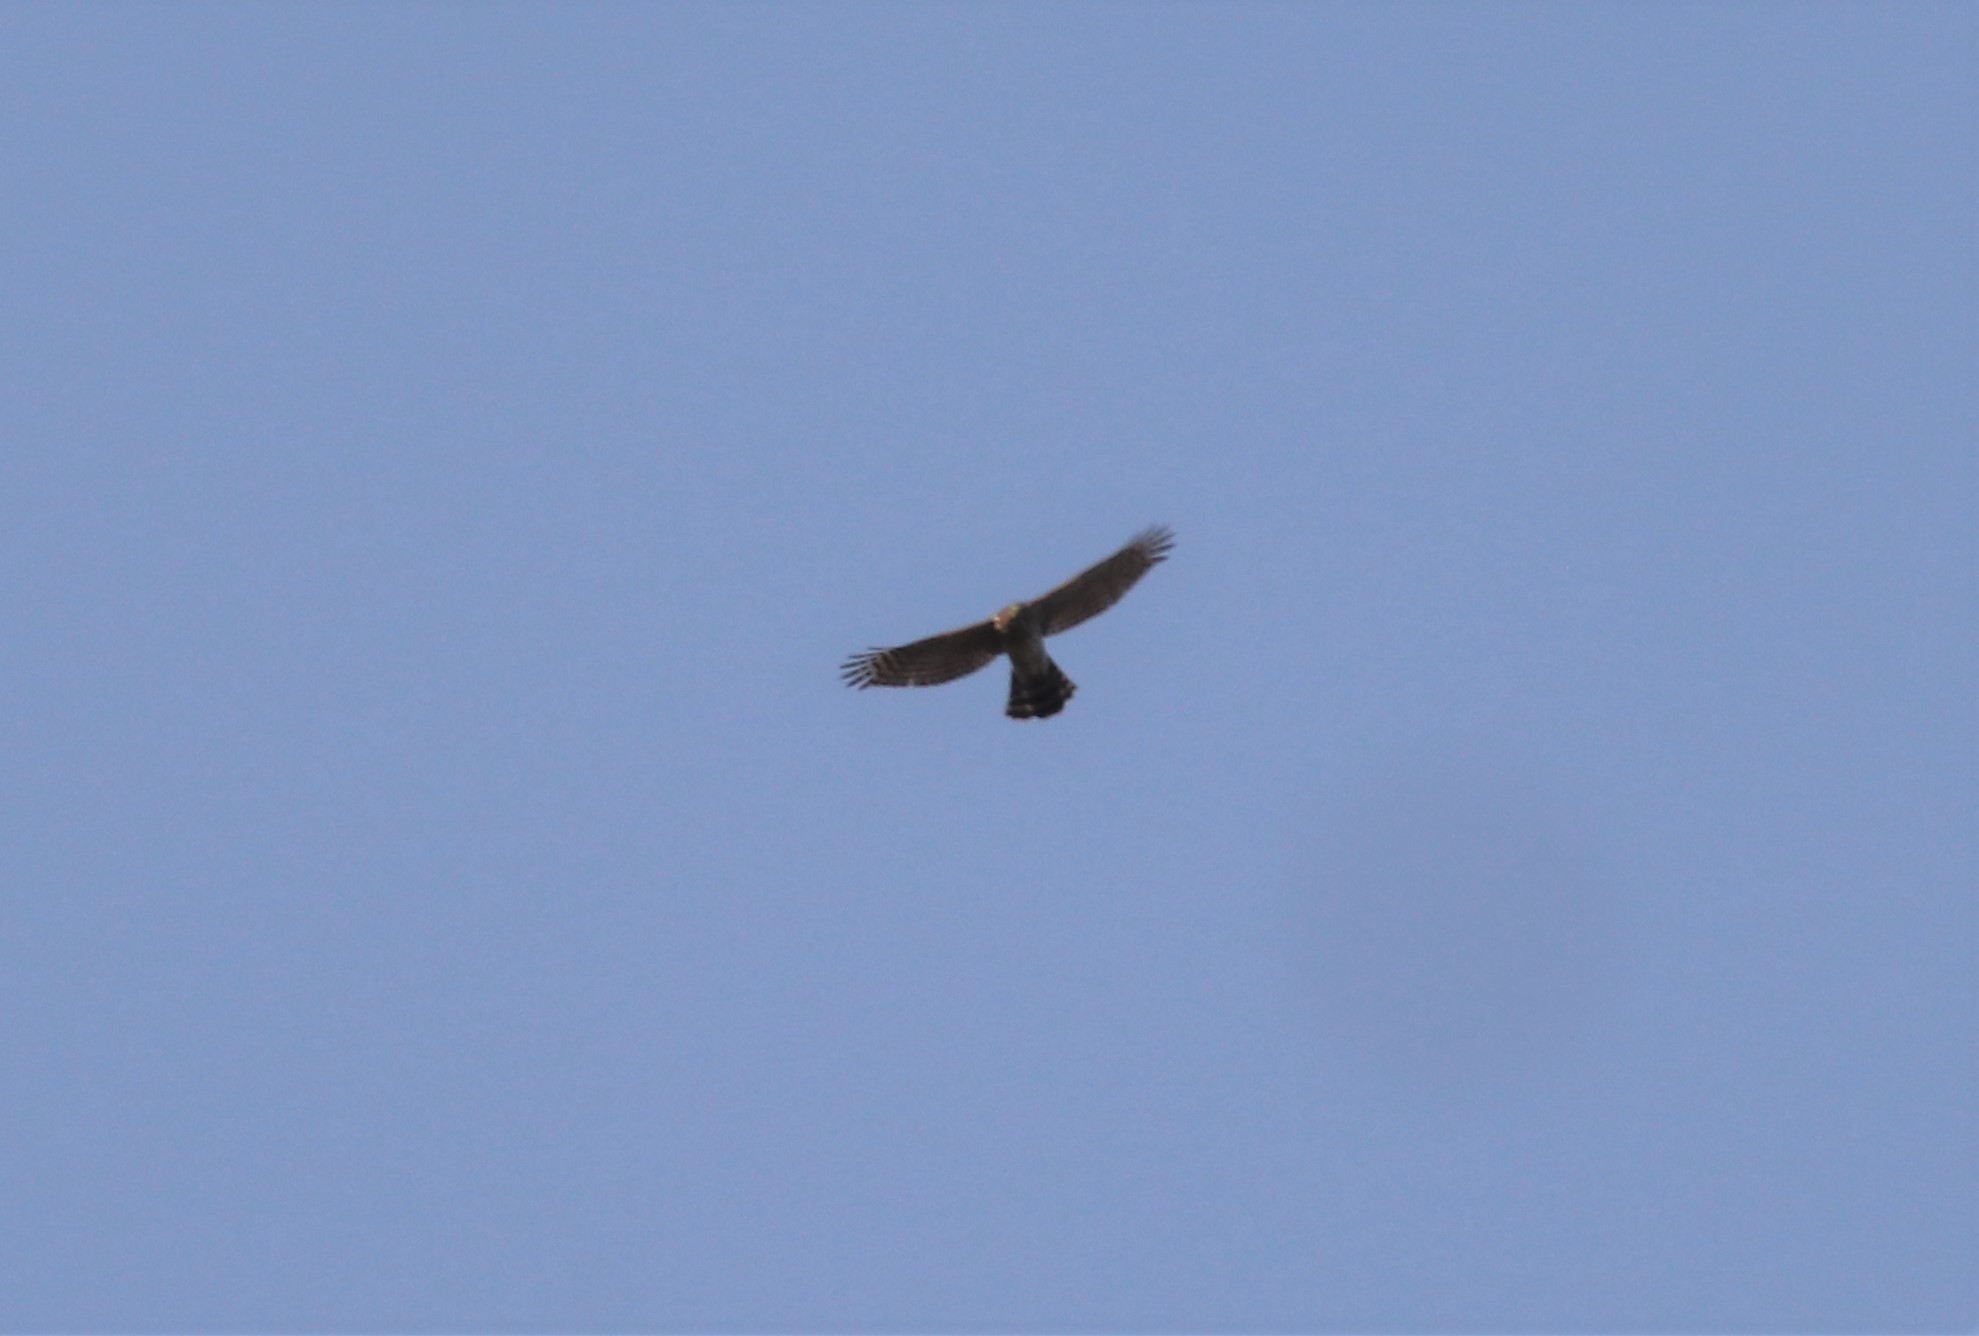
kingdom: Animalia
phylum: Chordata
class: Aves
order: Accipitriformes
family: Accipitridae
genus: Accipiter
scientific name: Accipiter cooperii
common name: Cooper's hawk
